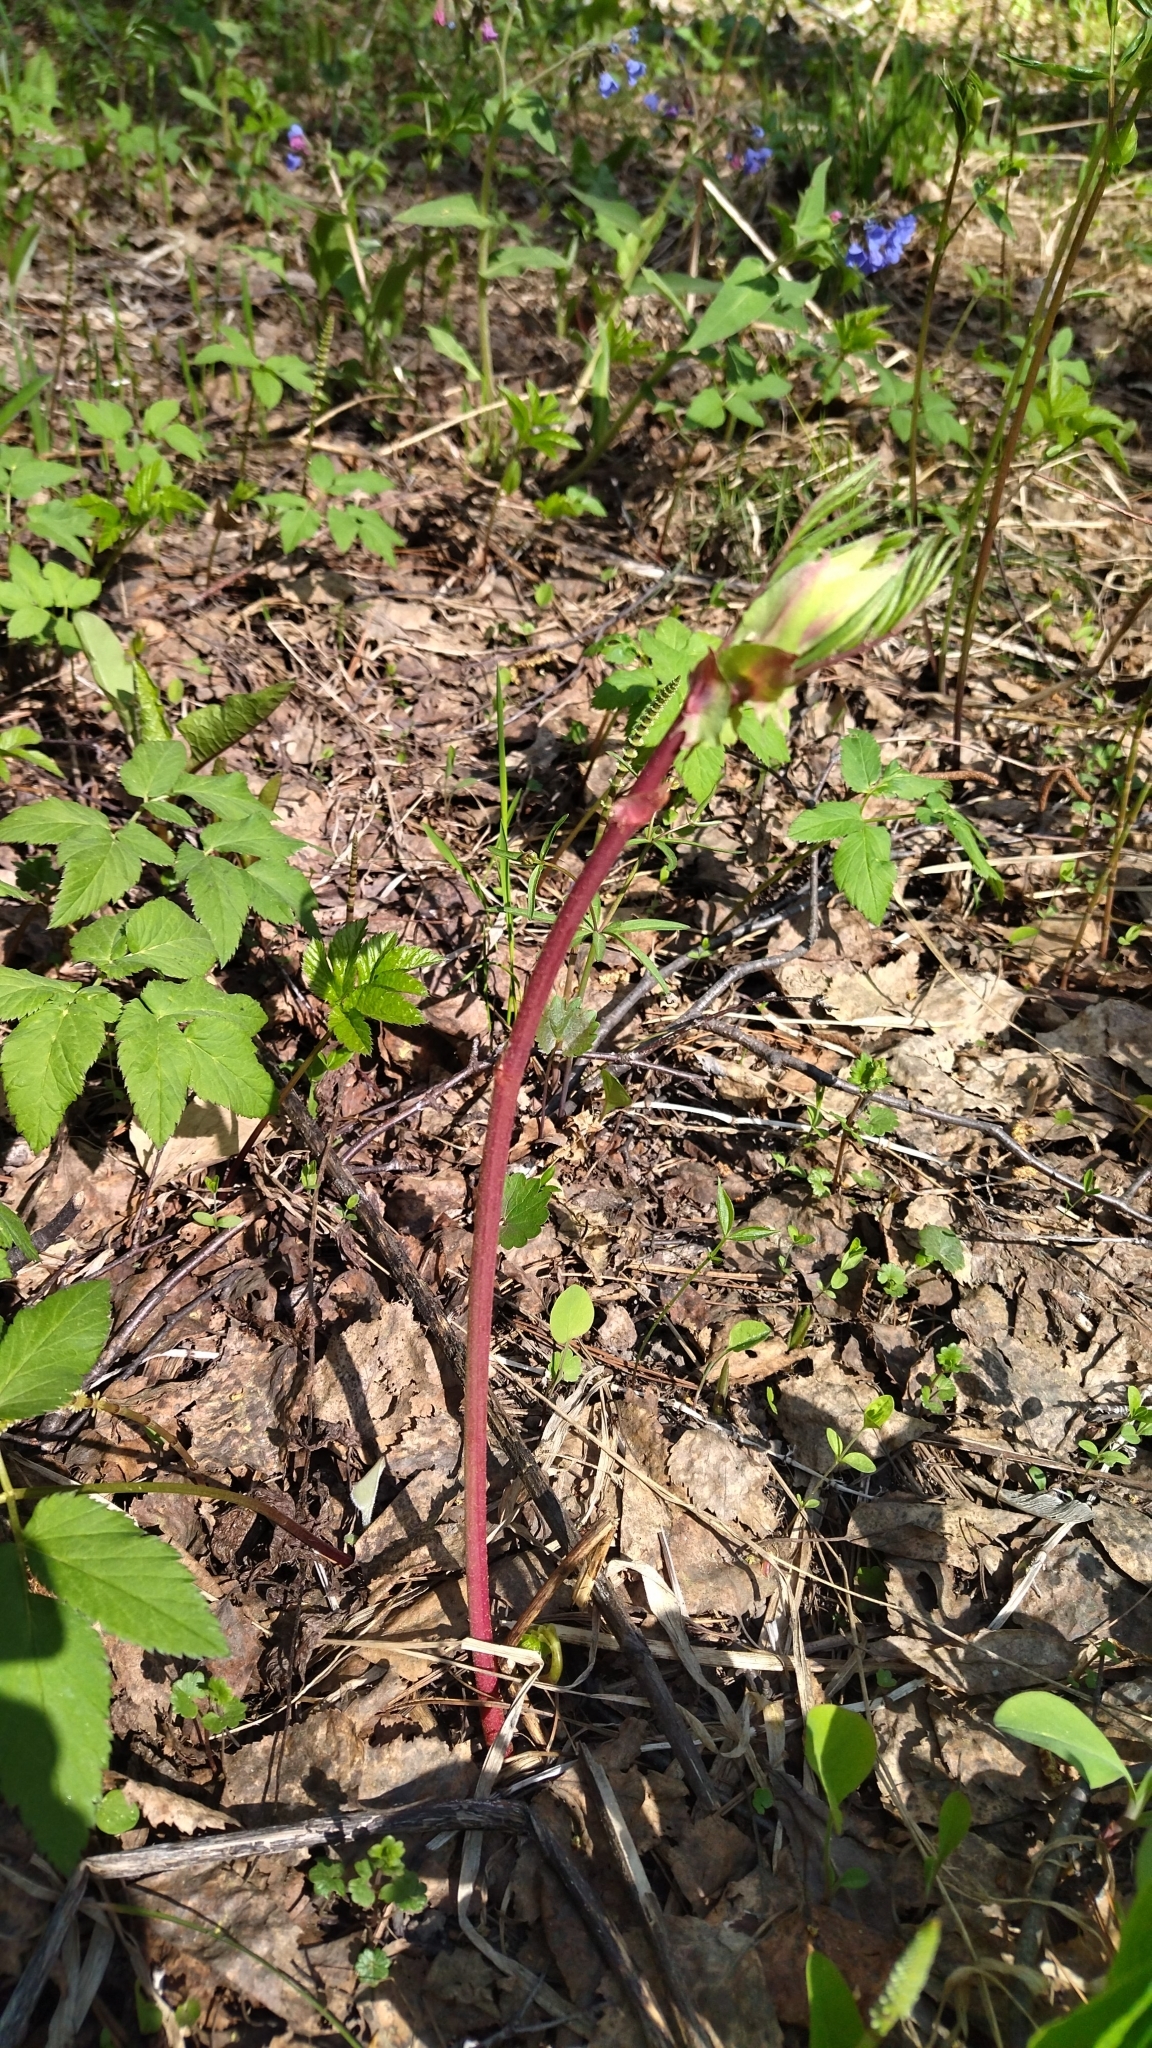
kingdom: Plantae
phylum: Tracheophyta
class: Magnoliopsida
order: Fabales
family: Fabaceae
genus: Lathyrus
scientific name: Lathyrus vernus
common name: Spring pea
